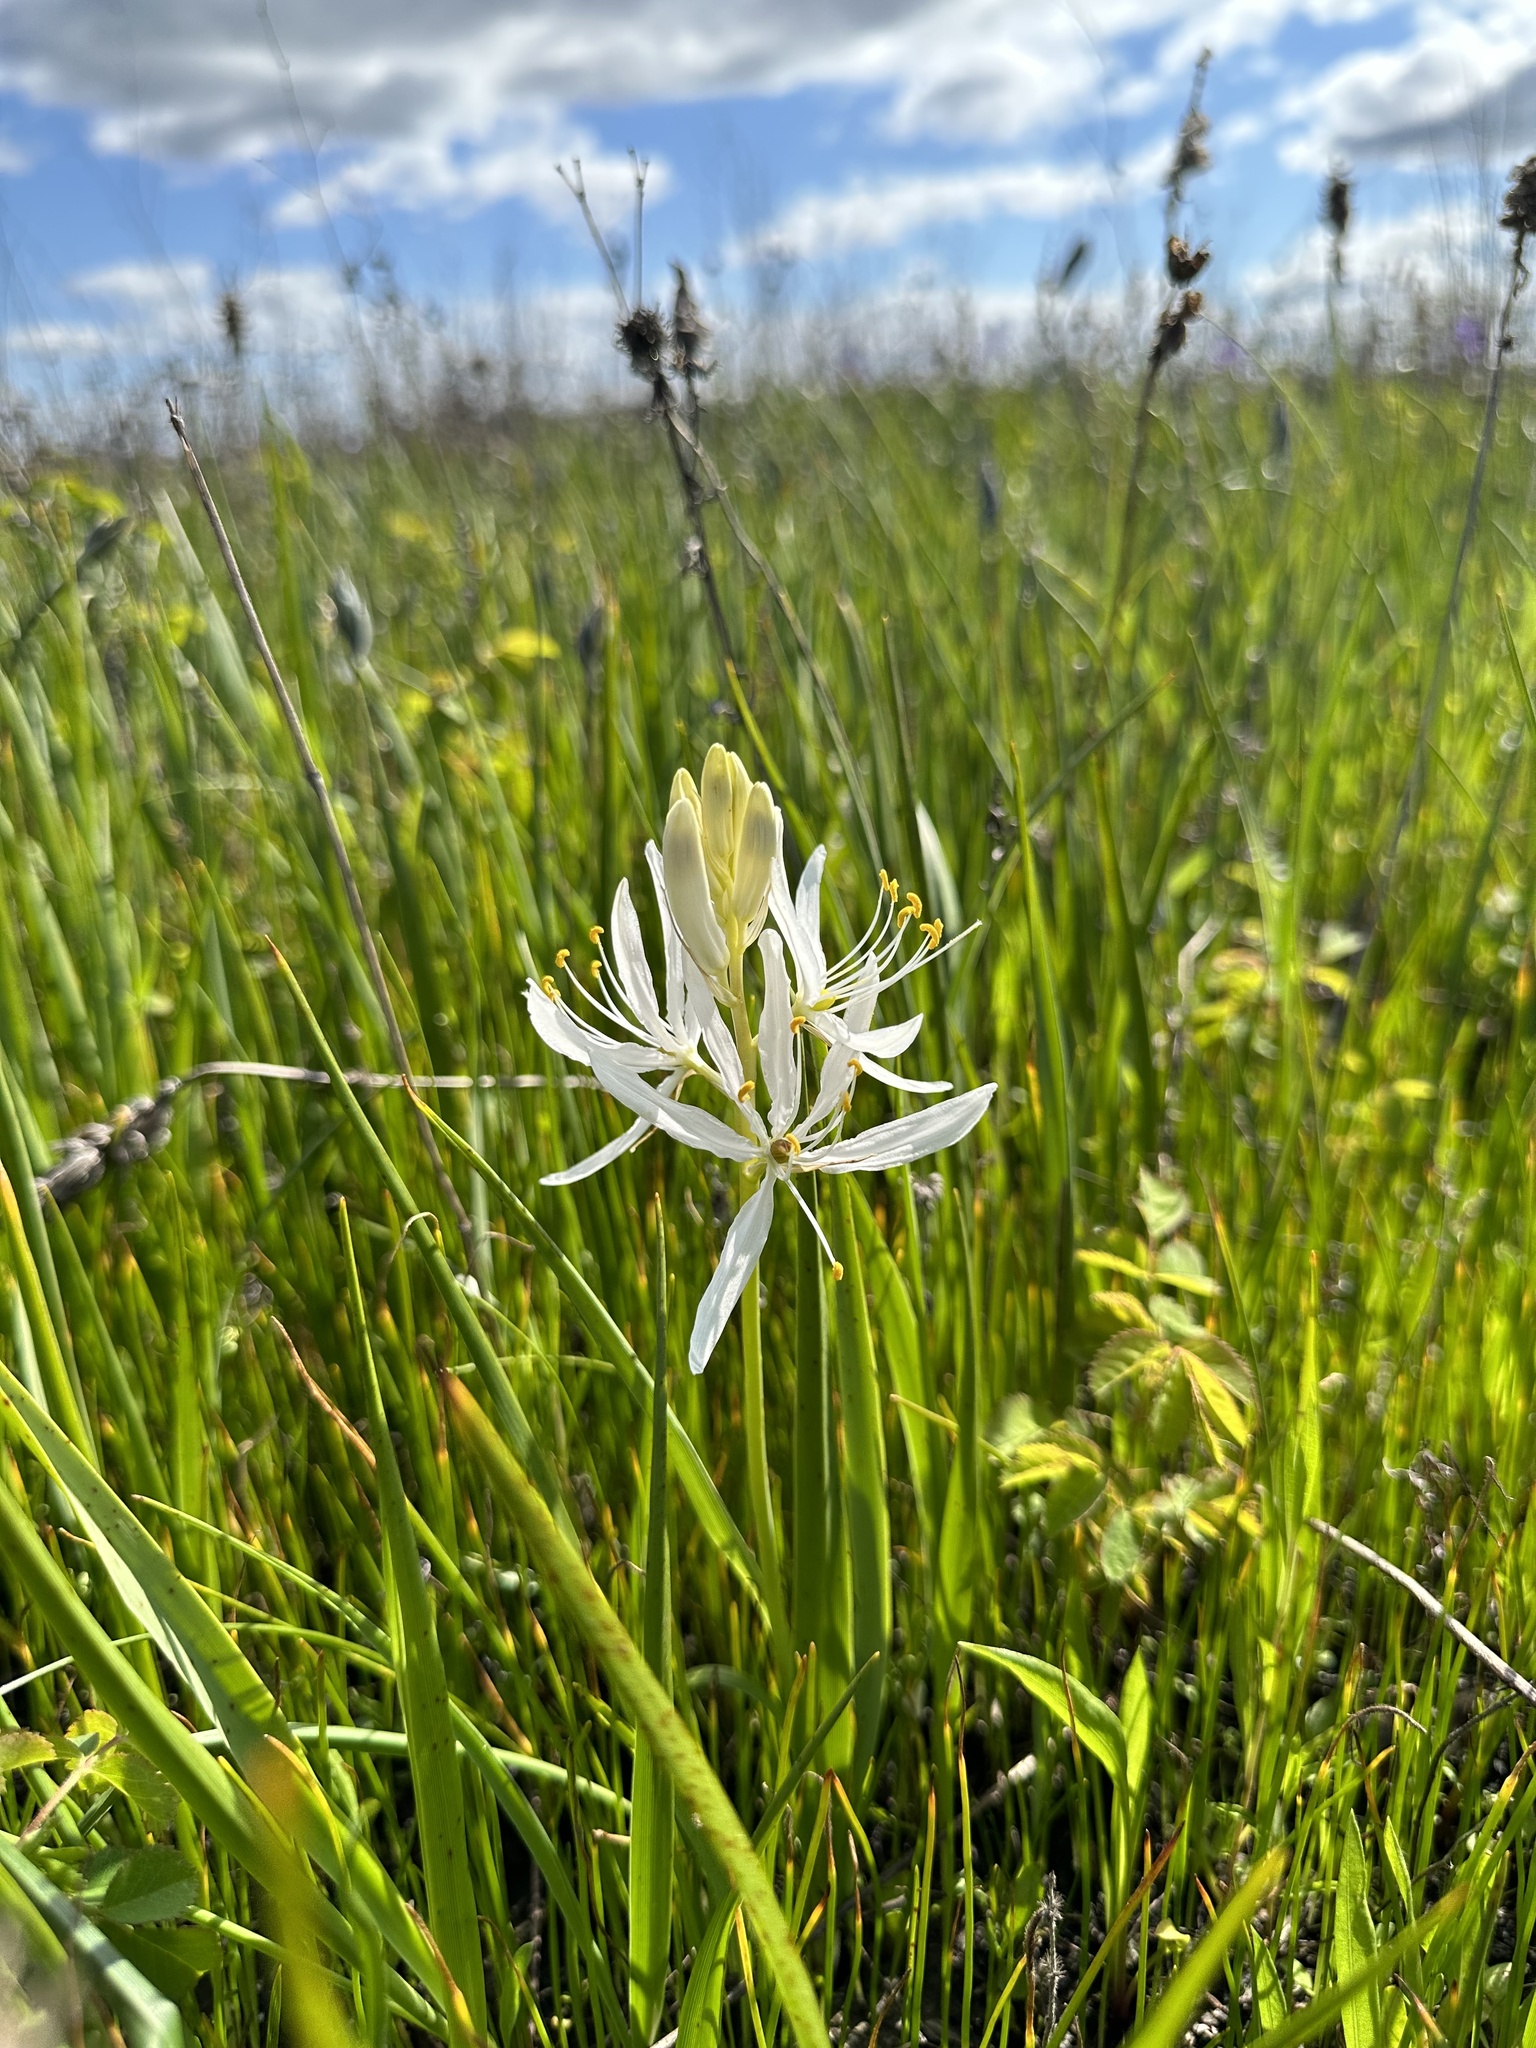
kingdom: Plantae
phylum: Tracheophyta
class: Liliopsida
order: Asparagales
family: Asparagaceae
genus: Camassia
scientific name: Camassia quamash
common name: Common camas
